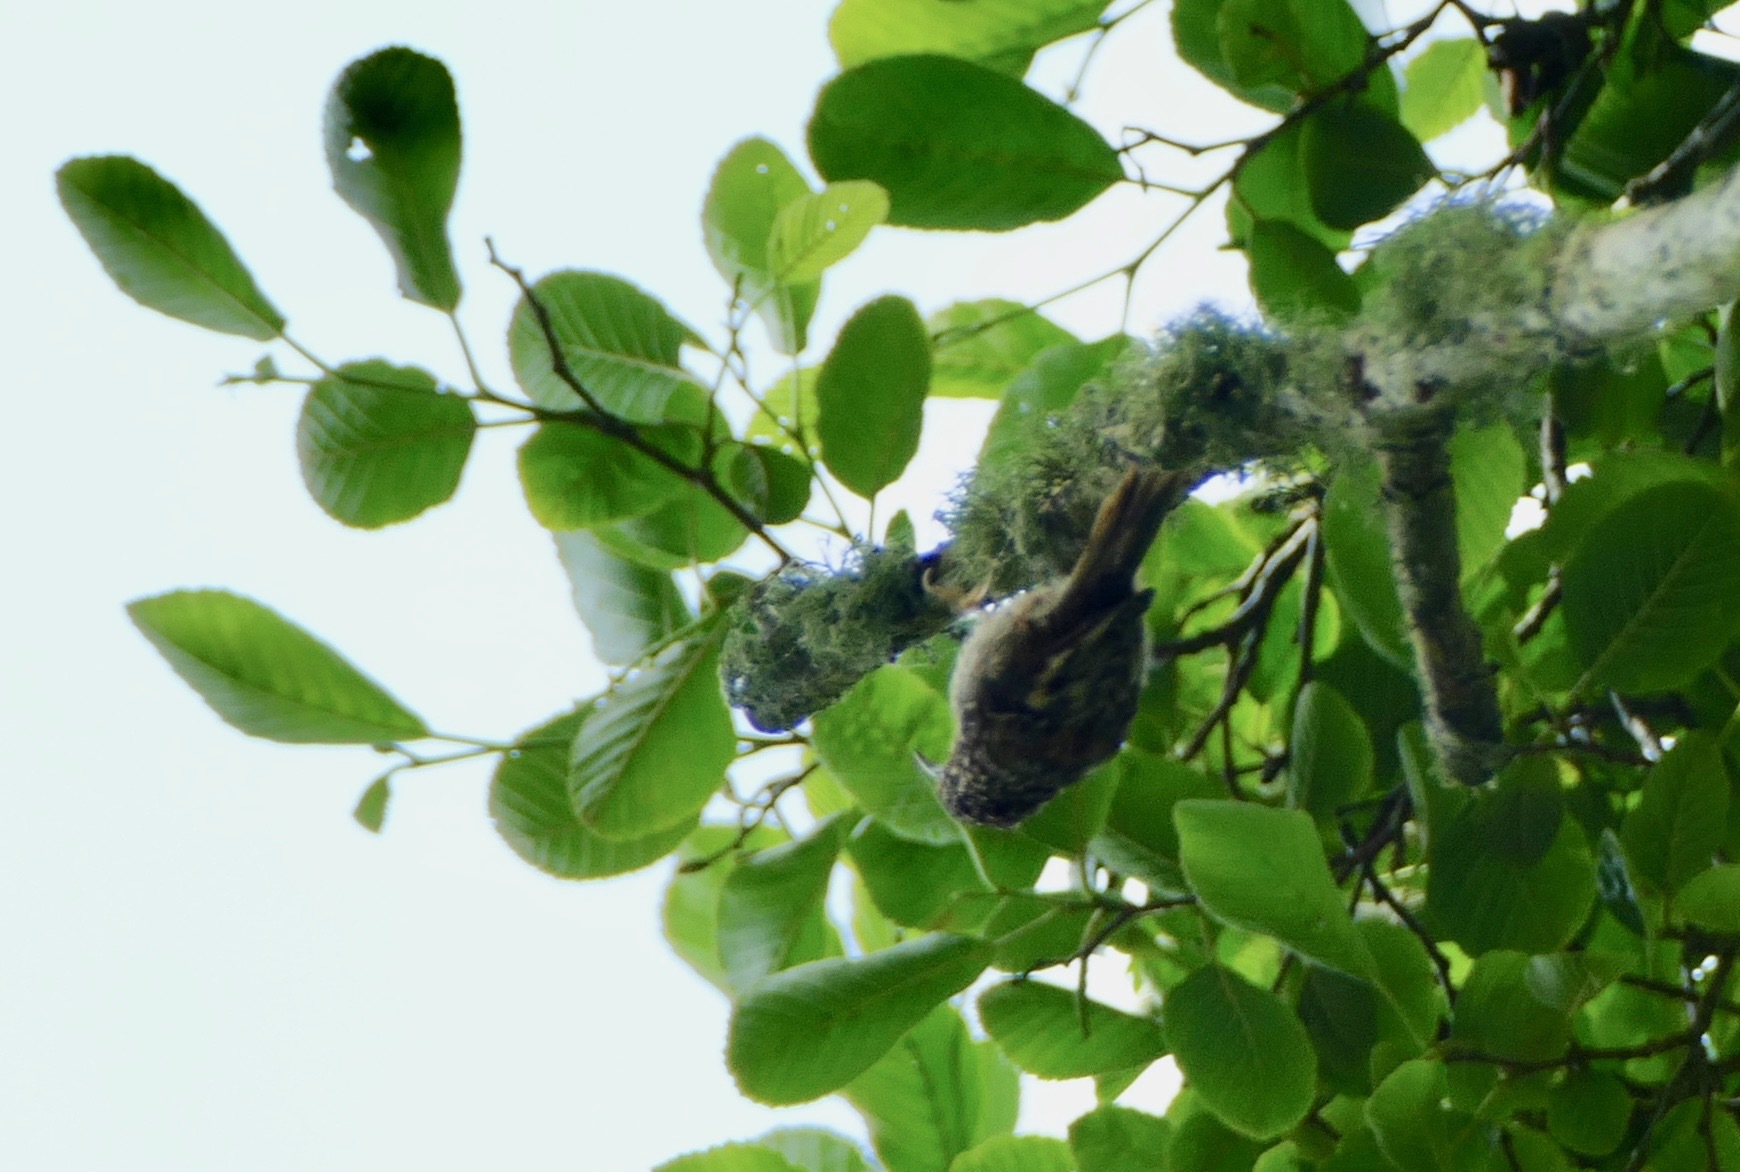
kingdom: Animalia
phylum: Chordata
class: Aves
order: Passeriformes
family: Certhiidae
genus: Certhia
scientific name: Certhia americana
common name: Brown creeper
